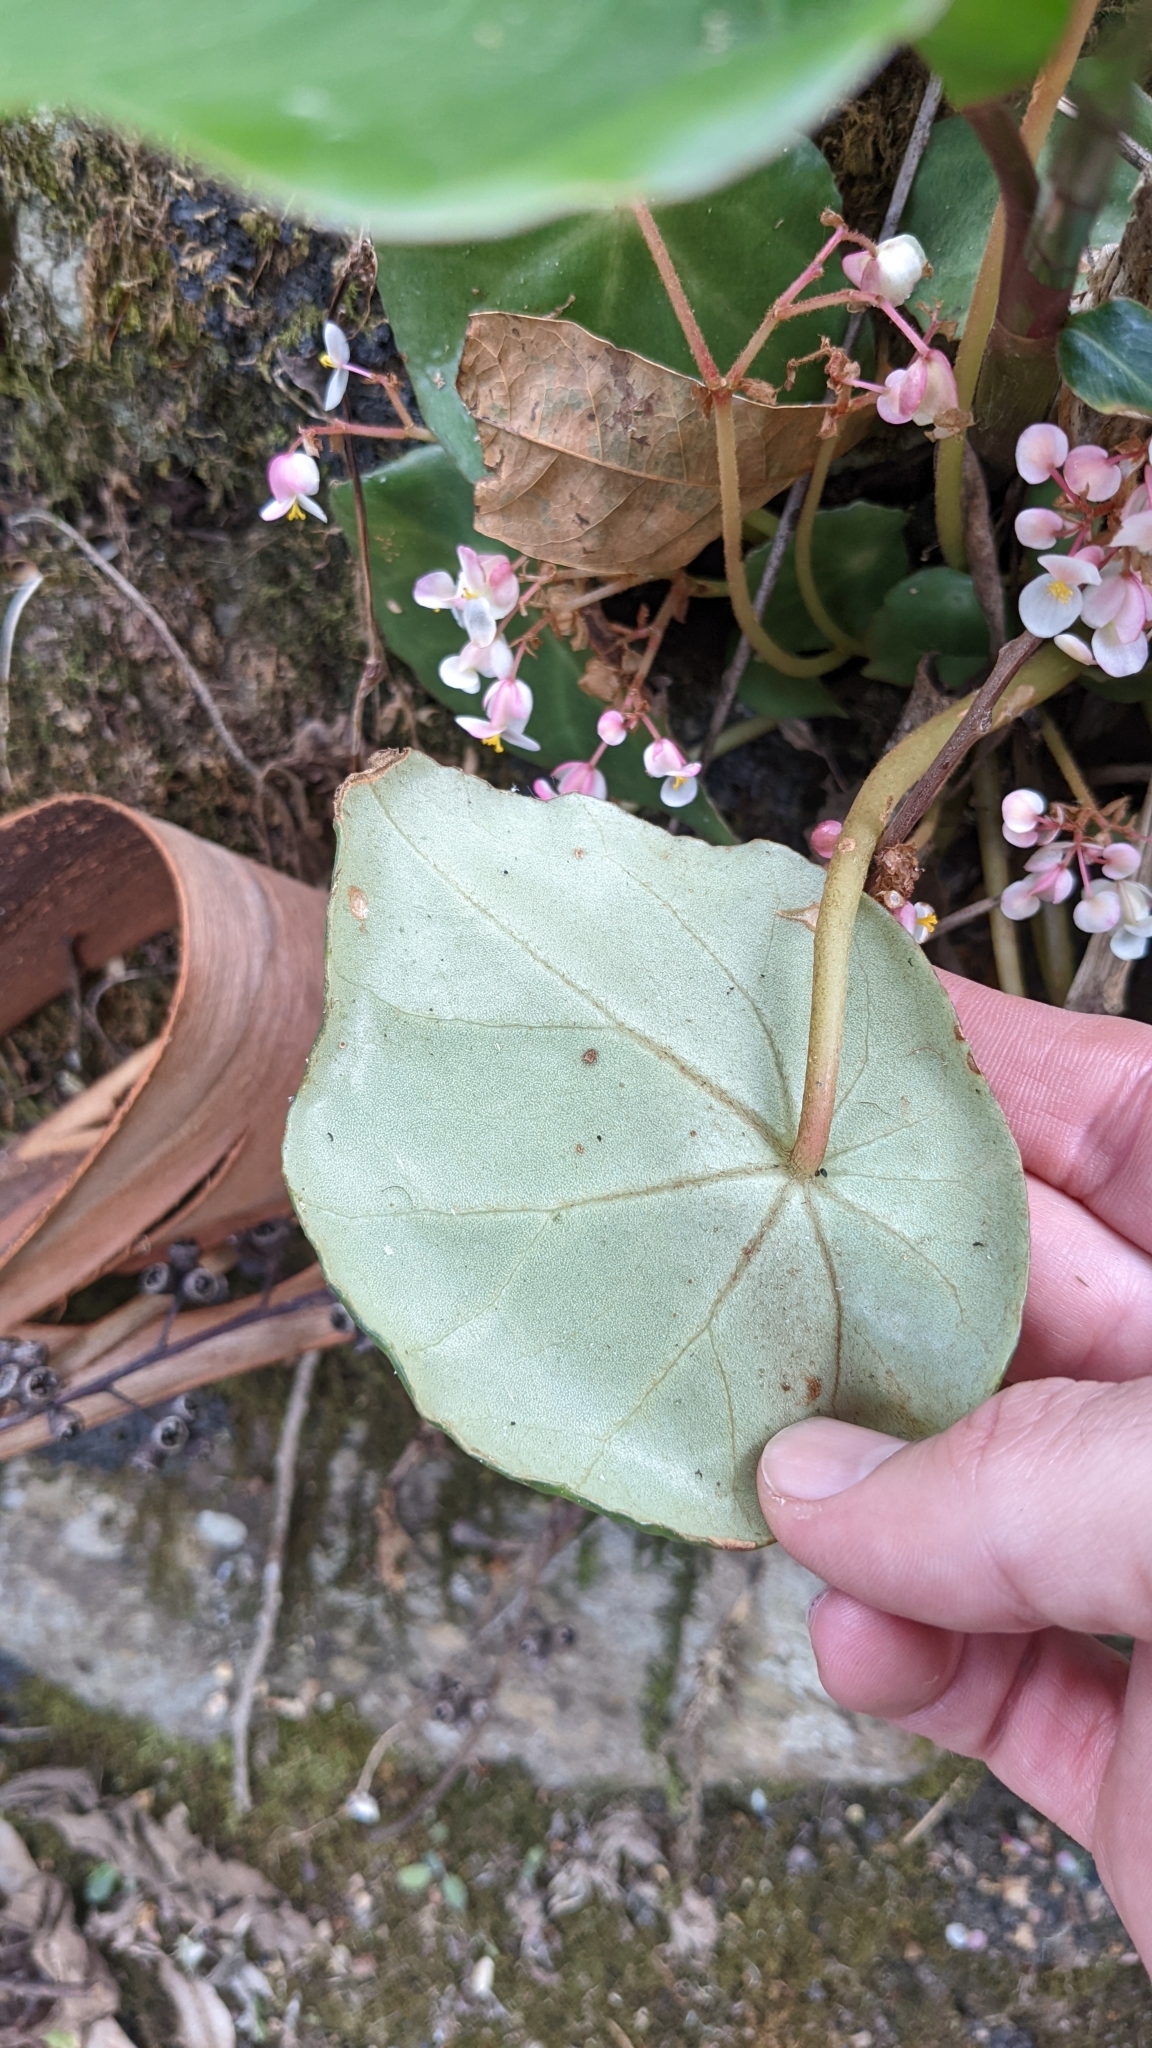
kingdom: Plantae
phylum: Tracheophyta
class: Magnoliopsida
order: Cucurbitales
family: Begoniaceae
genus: Begonia
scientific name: Begonia conchifolia
